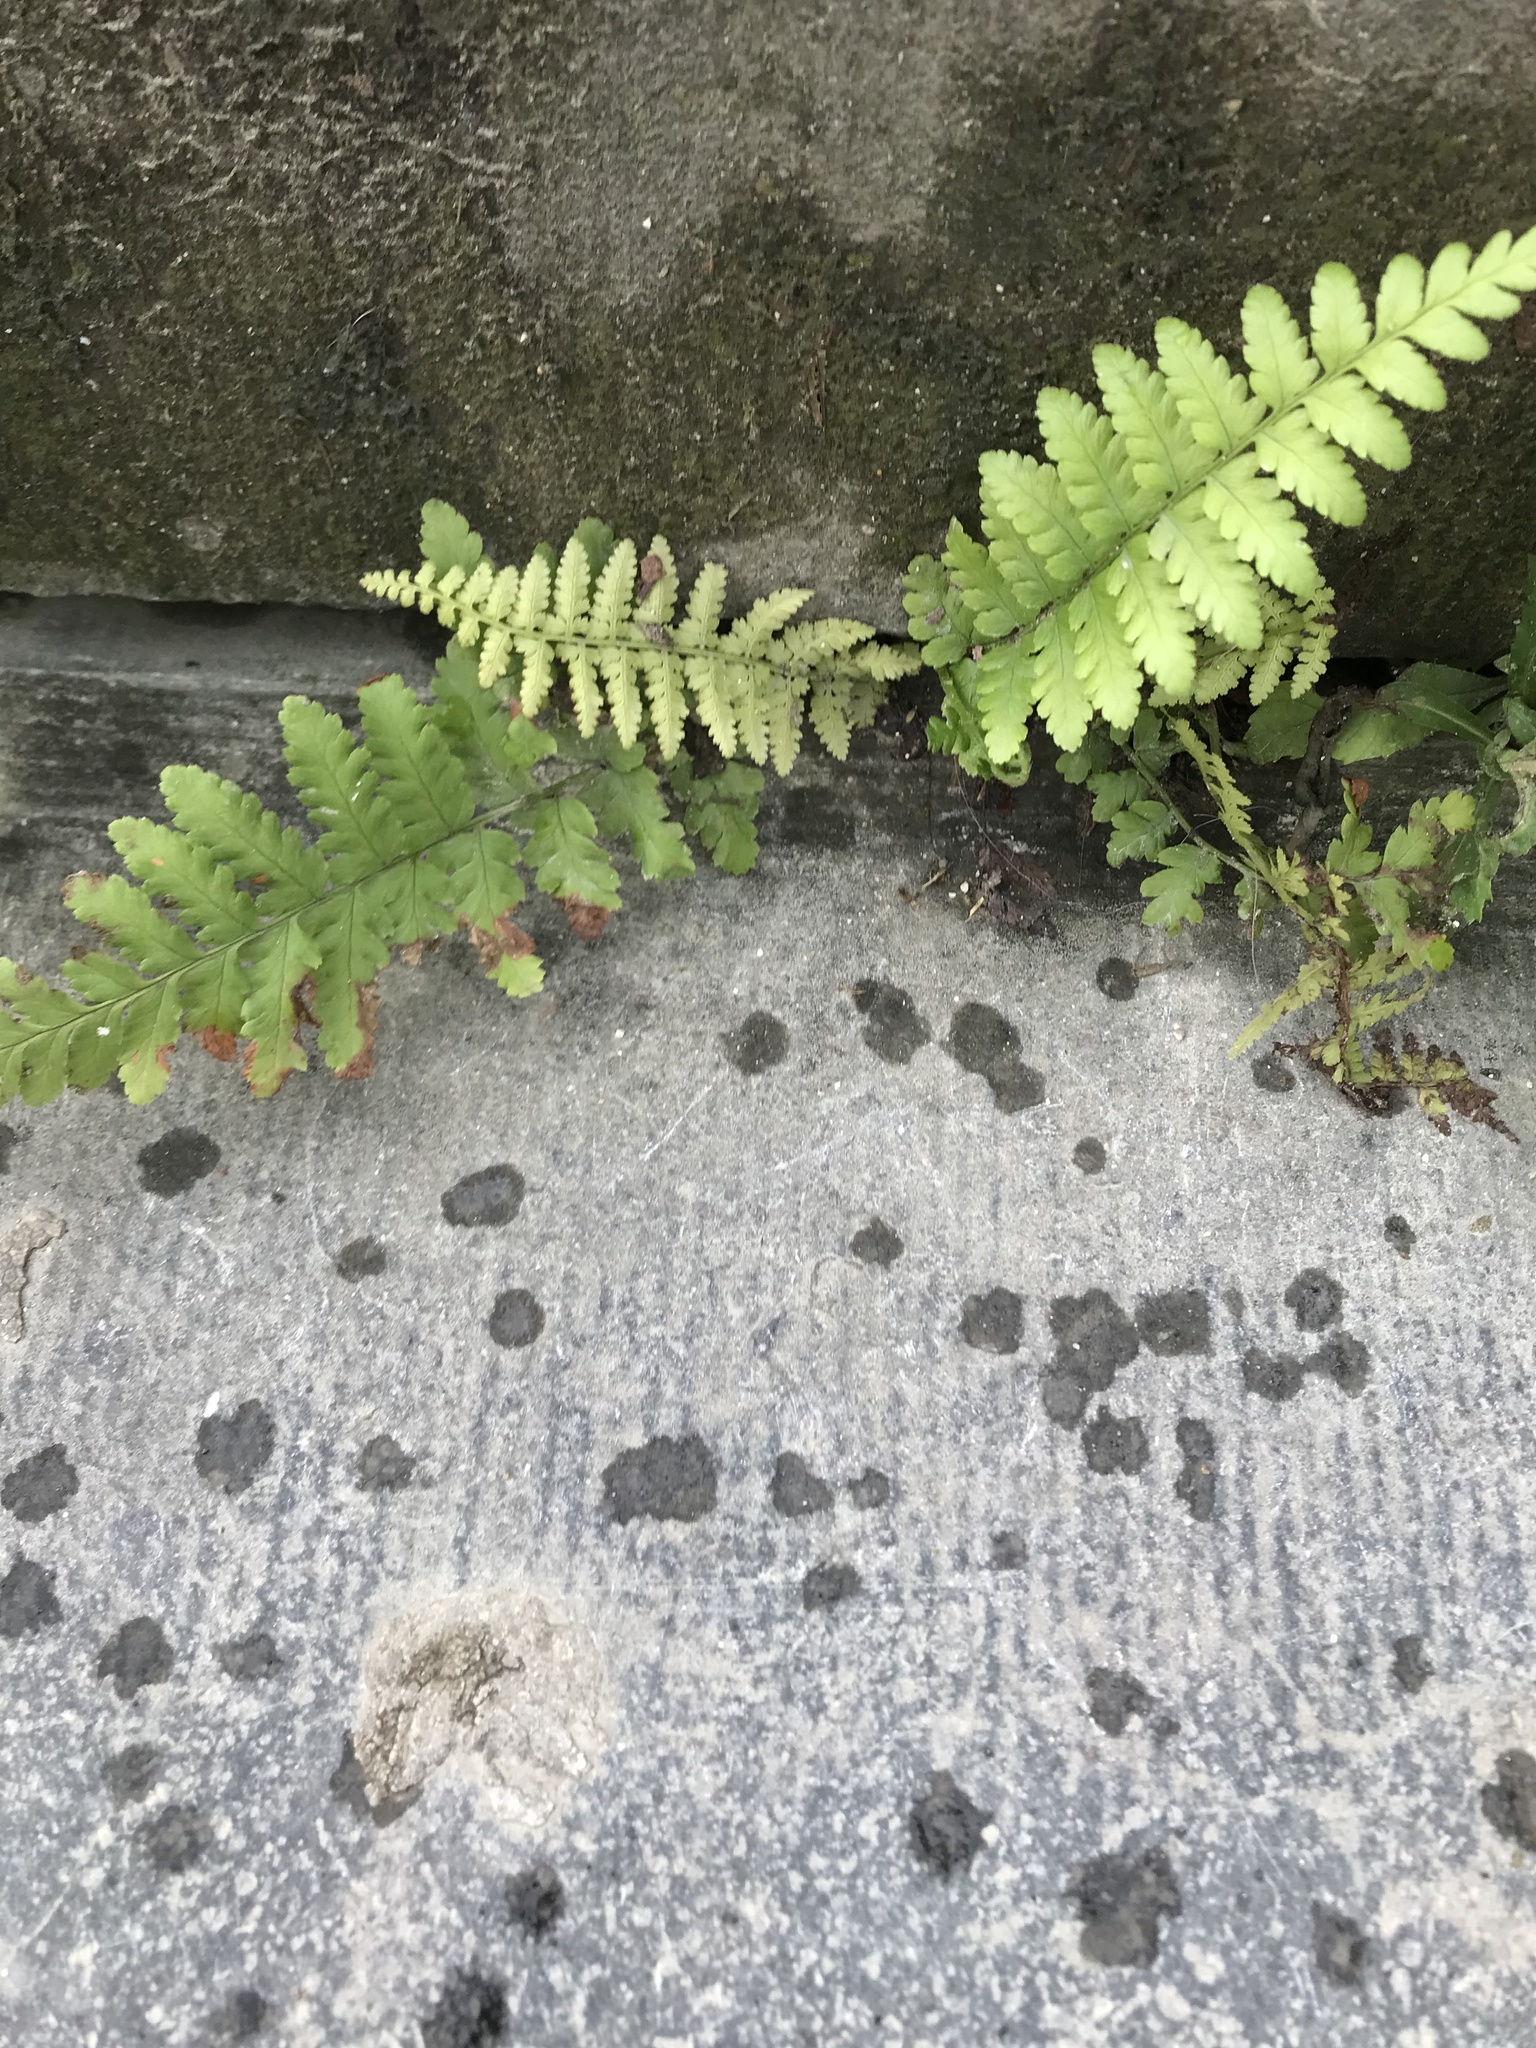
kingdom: Plantae
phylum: Tracheophyta
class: Polypodiopsida
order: Polypodiales
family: Dryopteridaceae
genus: Dryopteris
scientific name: Dryopteris filix-mas
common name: Male fern
